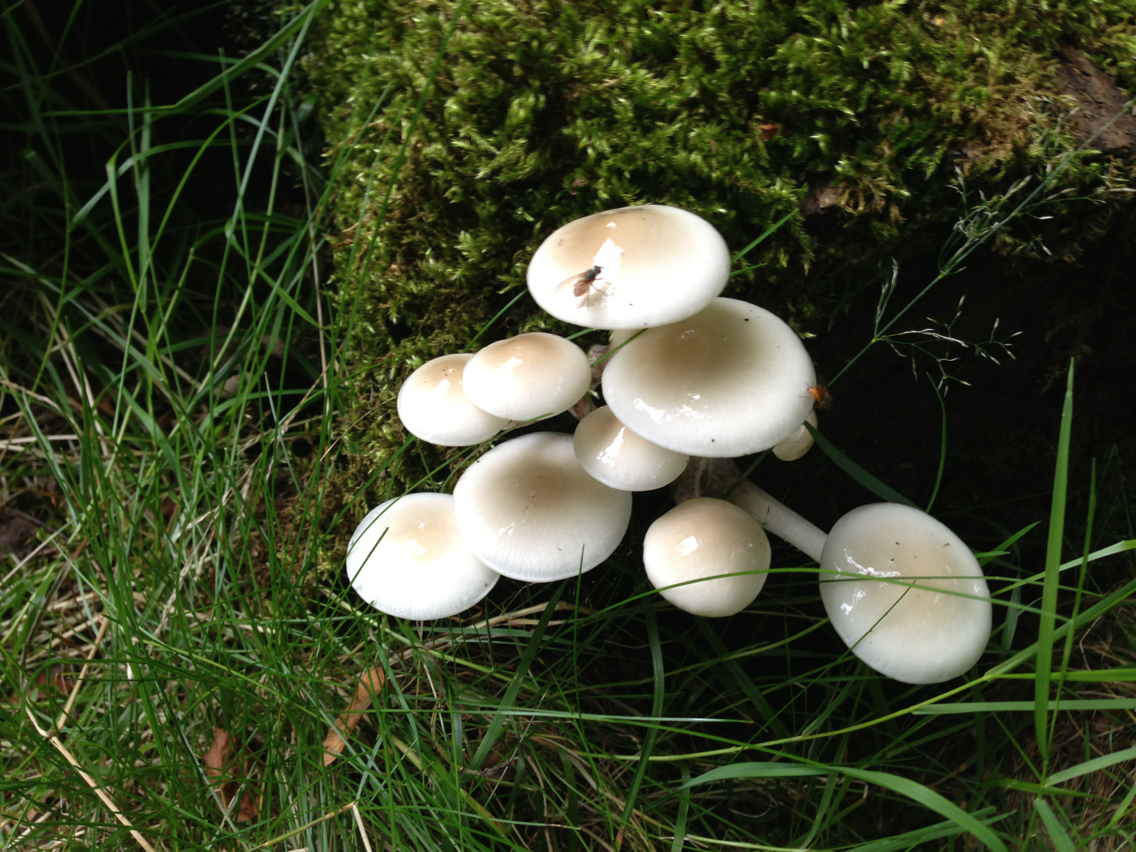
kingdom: Fungi
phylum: Basidiomycota
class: Agaricomycetes
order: Agaricales
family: Physalacriaceae
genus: Mucidula
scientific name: Mucidula mucida
